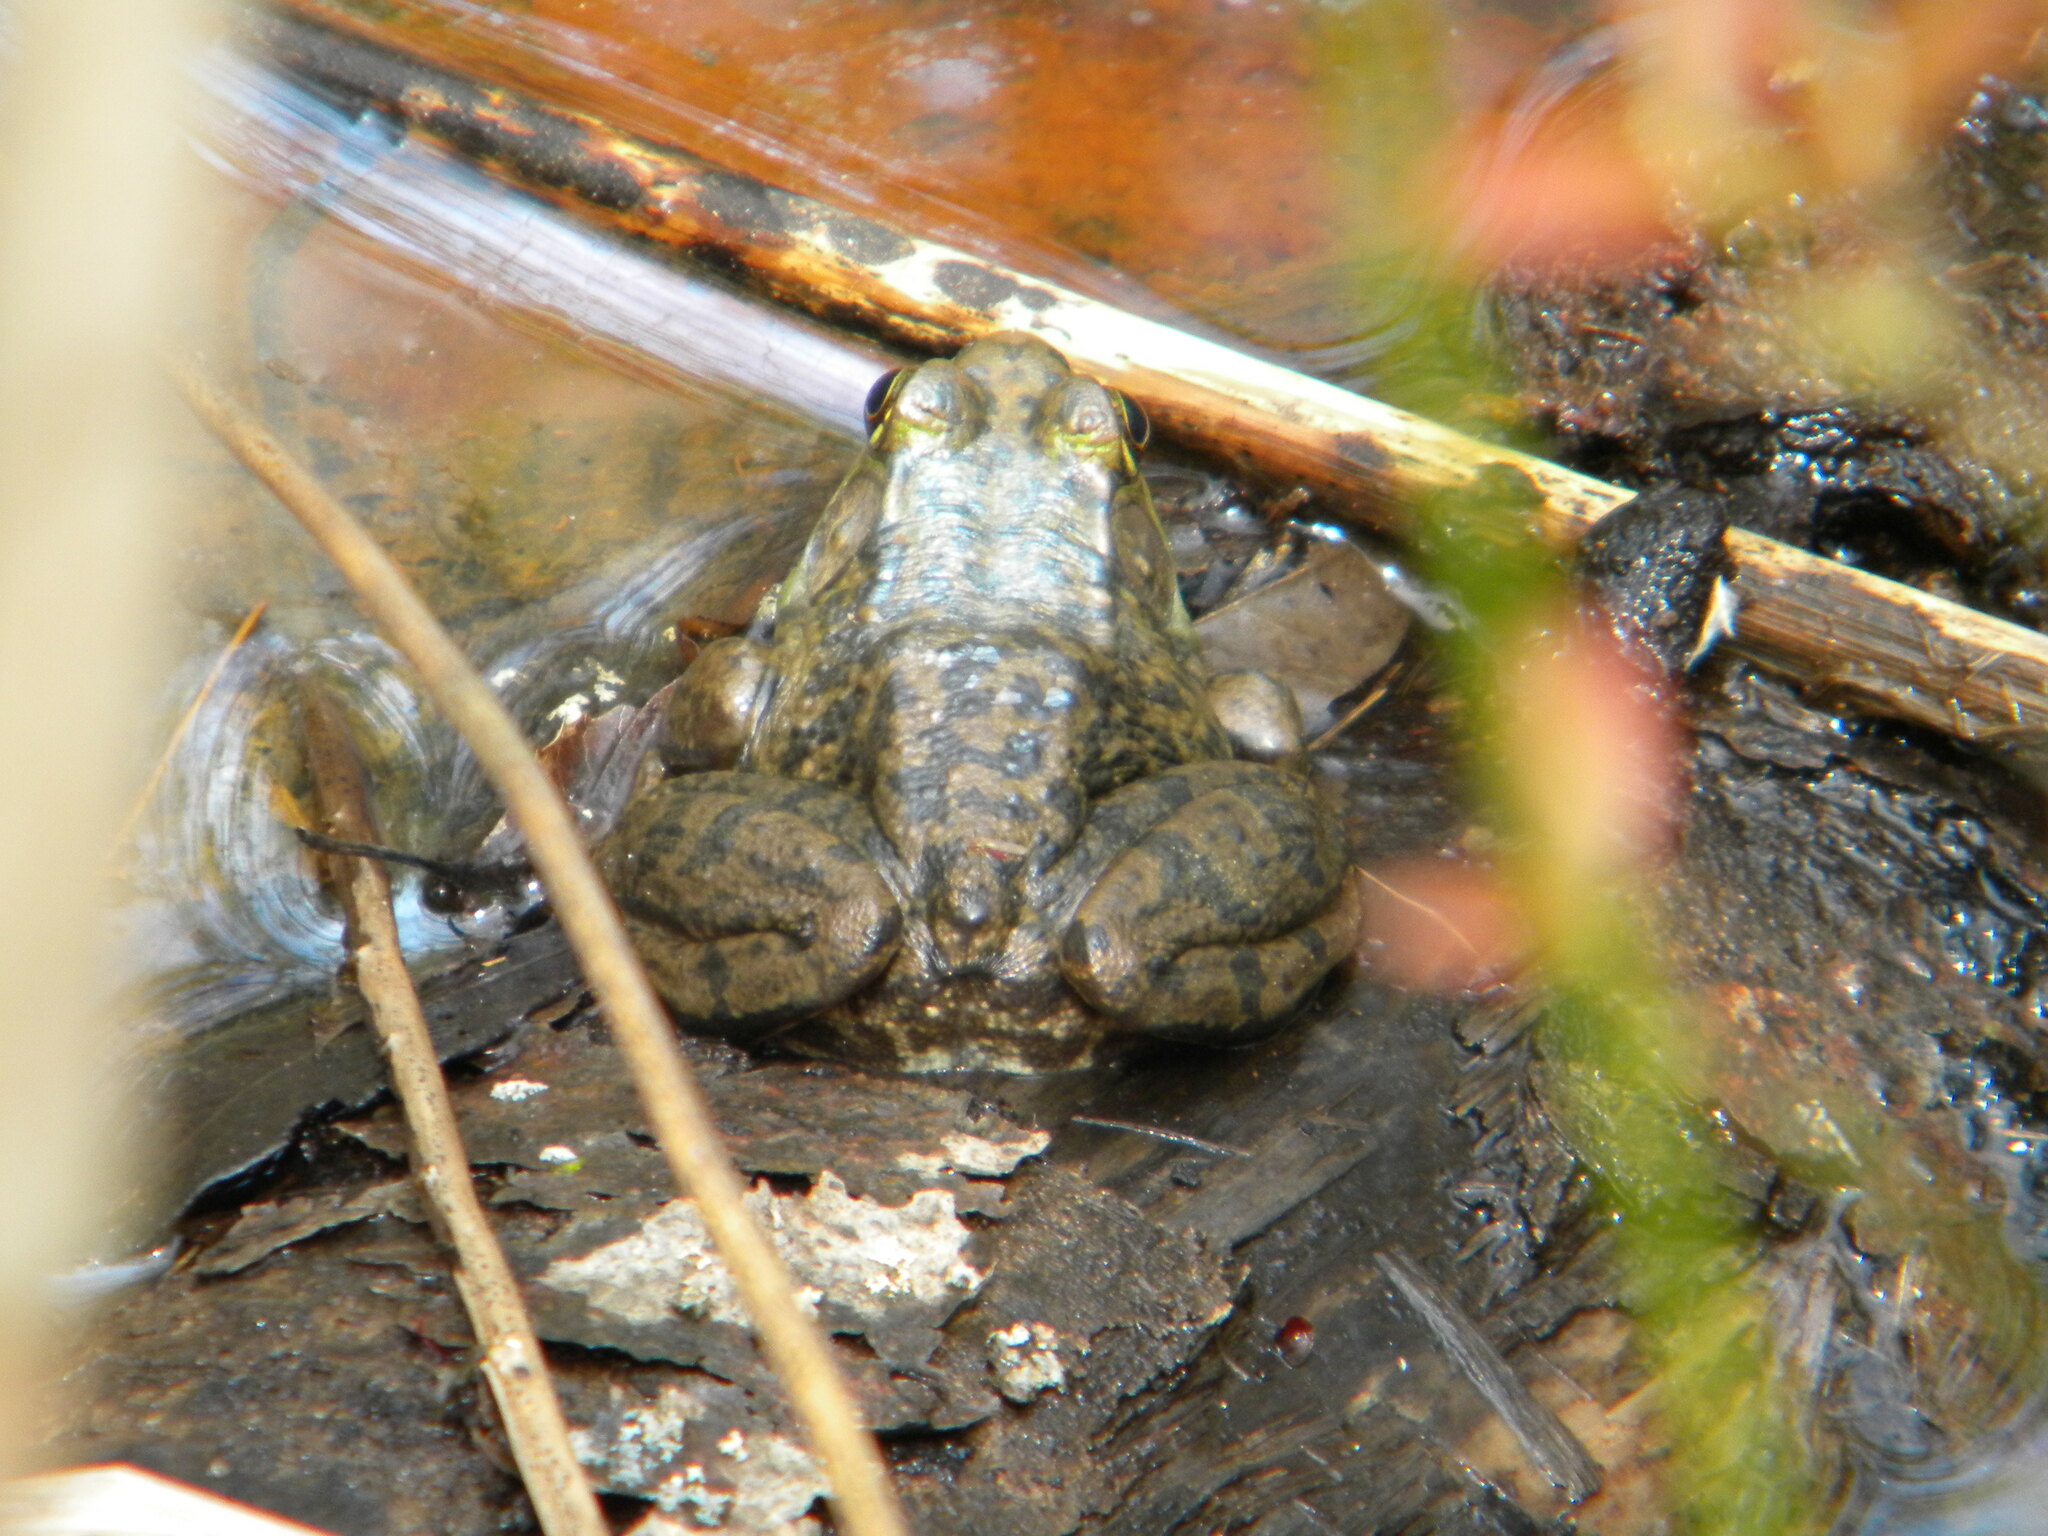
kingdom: Animalia
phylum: Chordata
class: Amphibia
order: Anura
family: Ranidae
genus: Lithobates
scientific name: Lithobates clamitans
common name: Green frog
